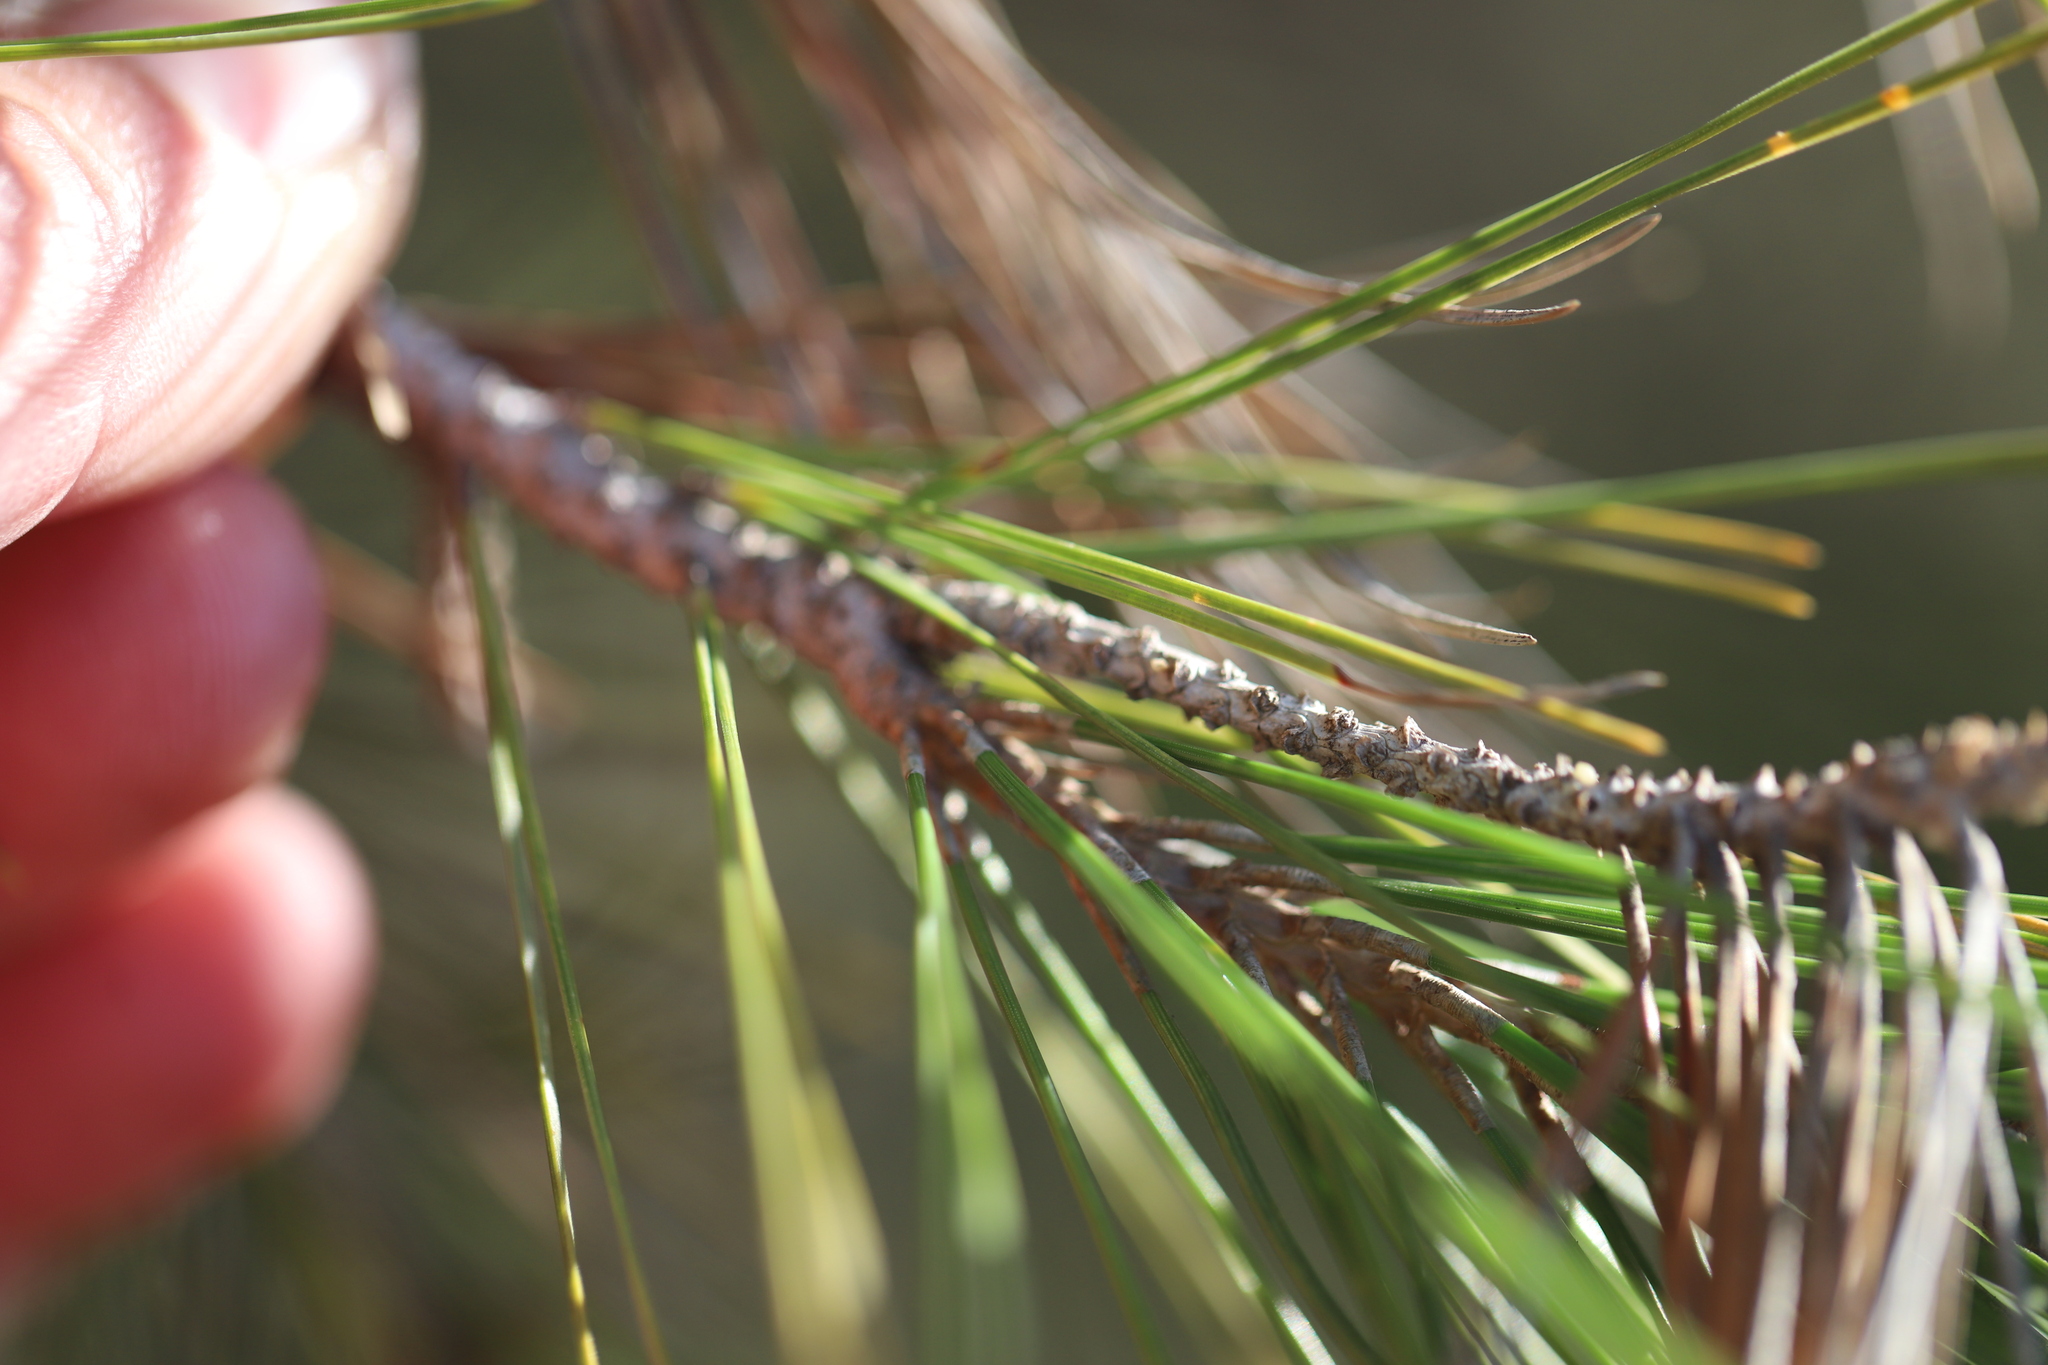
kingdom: Plantae
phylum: Tracheophyta
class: Pinopsida
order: Pinales
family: Pinaceae
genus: Pinus
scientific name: Pinus halepensis
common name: Aleppo pine
